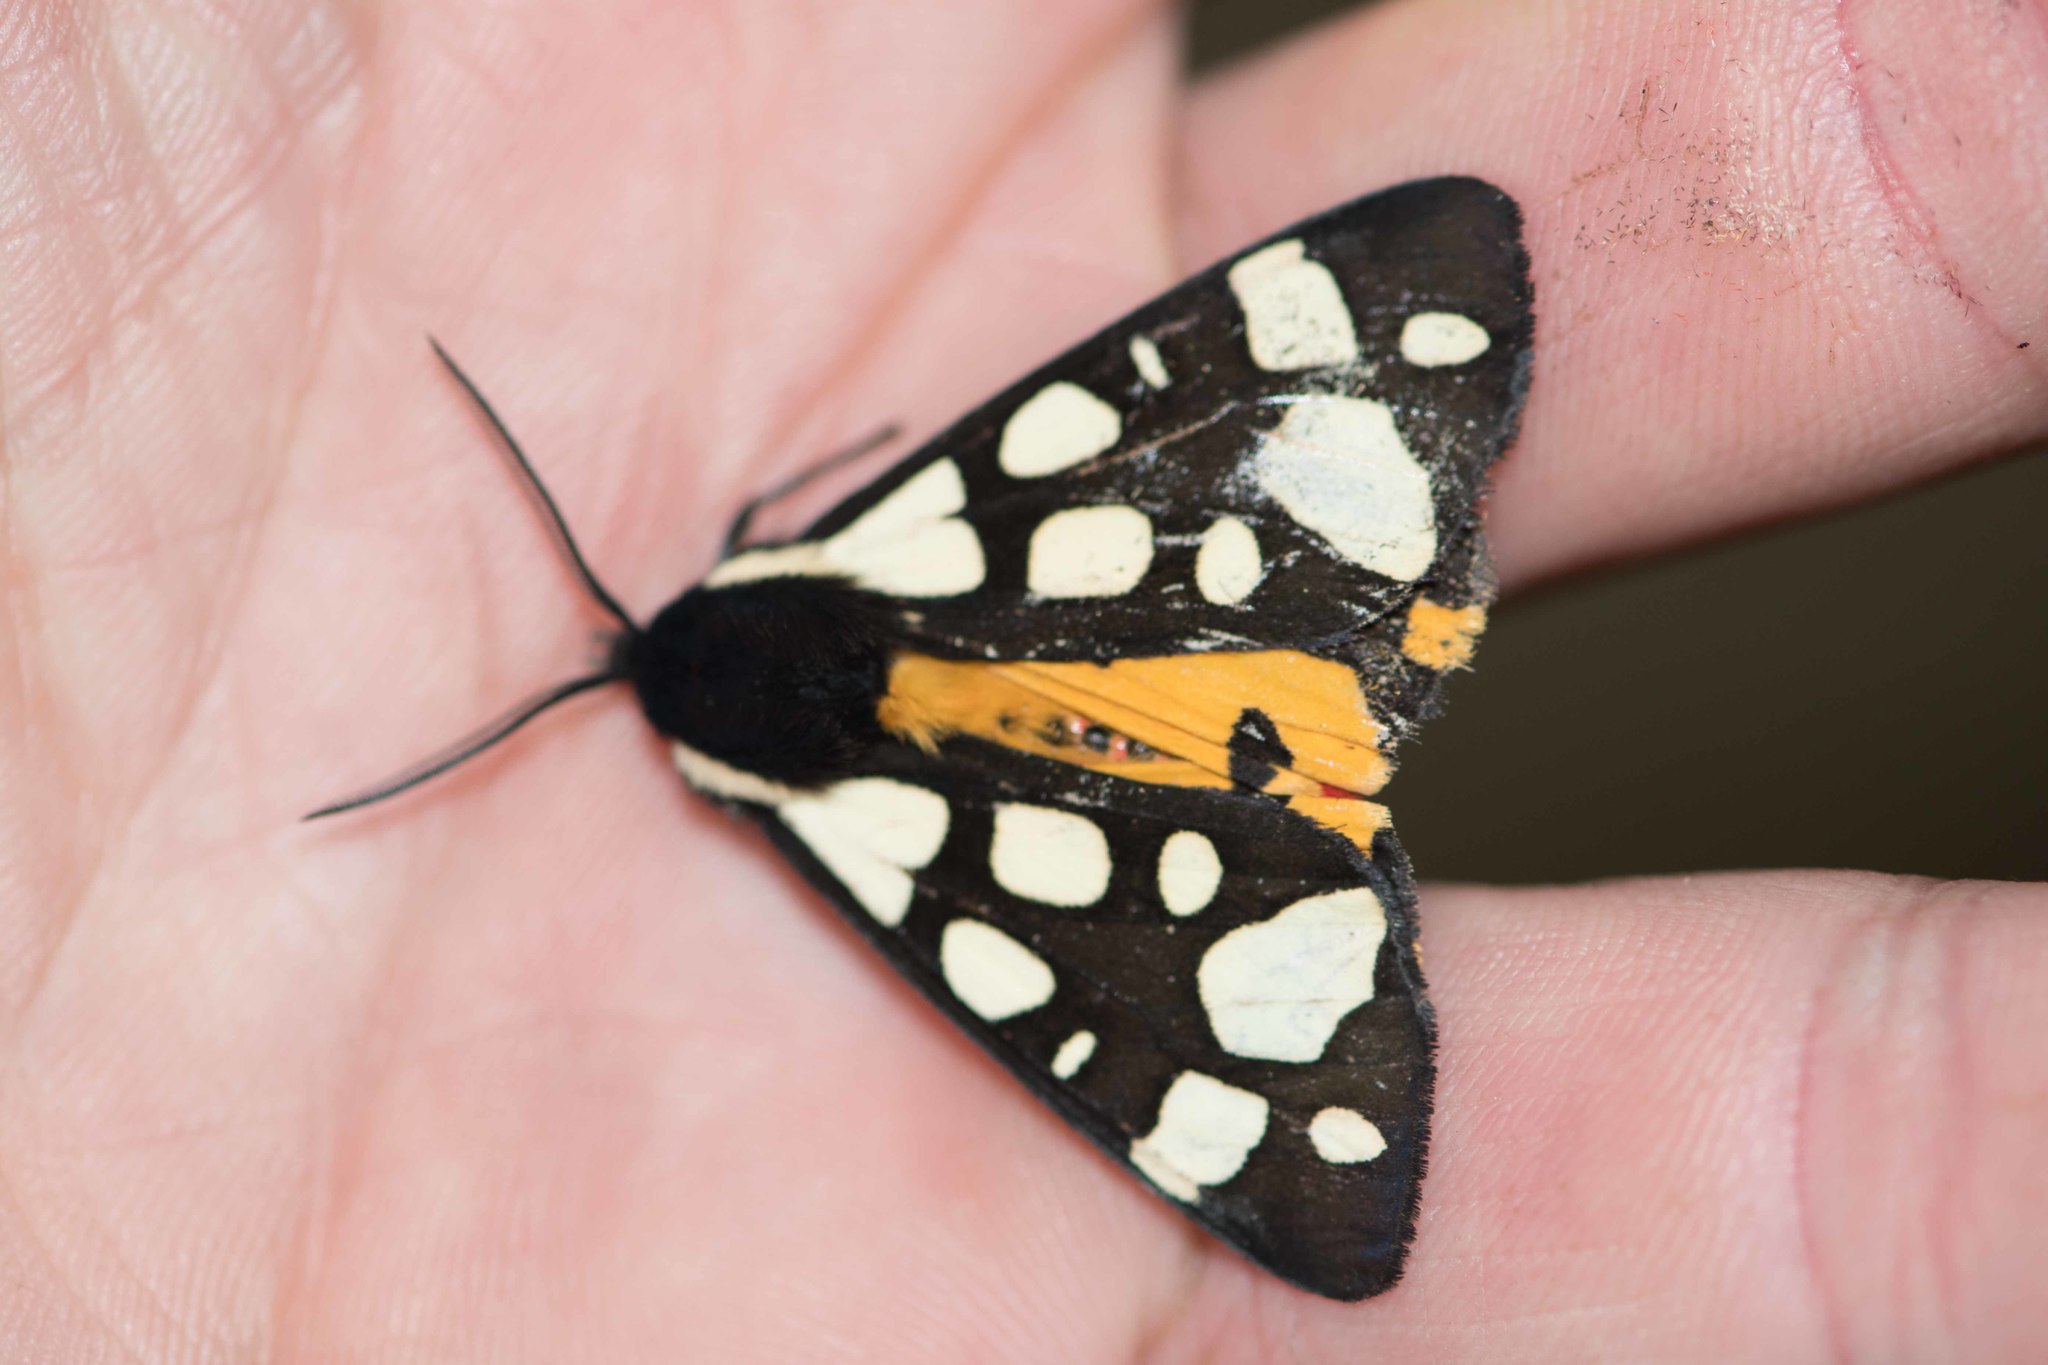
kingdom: Animalia
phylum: Arthropoda
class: Insecta
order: Lepidoptera
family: Erebidae
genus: Epicallia
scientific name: Epicallia villica
